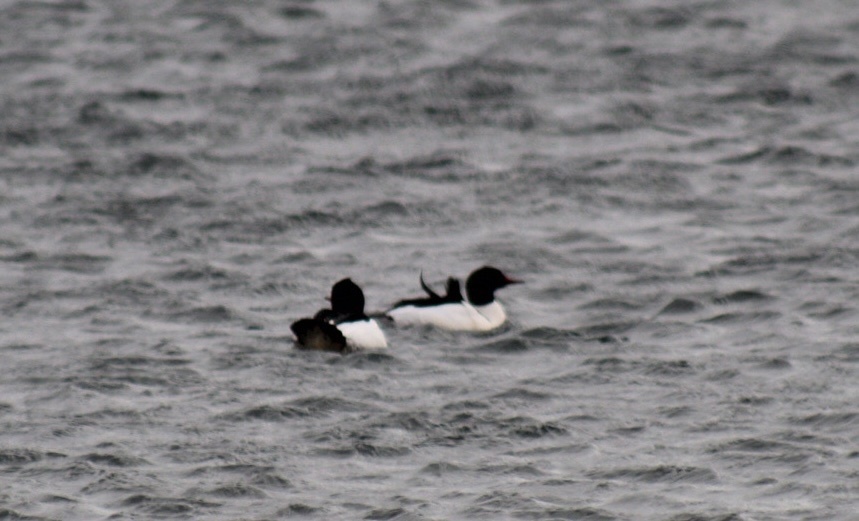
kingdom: Animalia
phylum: Chordata
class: Aves
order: Anseriformes
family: Anatidae
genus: Mergus
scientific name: Mergus merganser
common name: Common merganser
